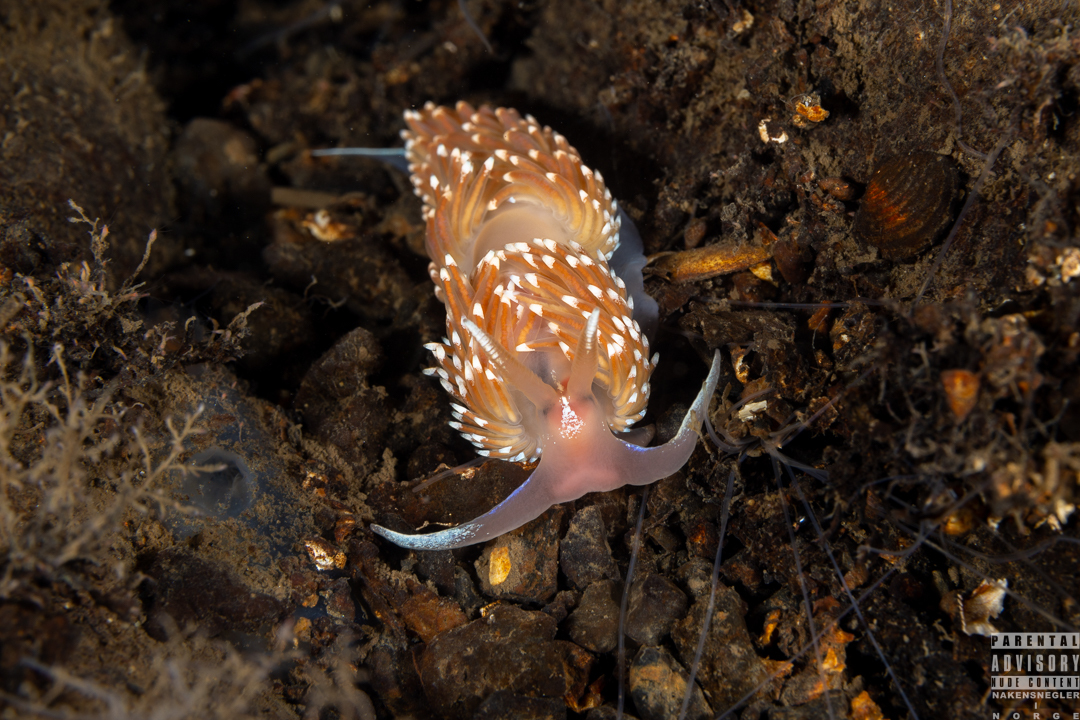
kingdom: Animalia
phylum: Mollusca
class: Gastropoda
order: Nudibranchia
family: Facelinidae
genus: Facelina
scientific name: Facelina bostoniensis
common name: Boston facelina
